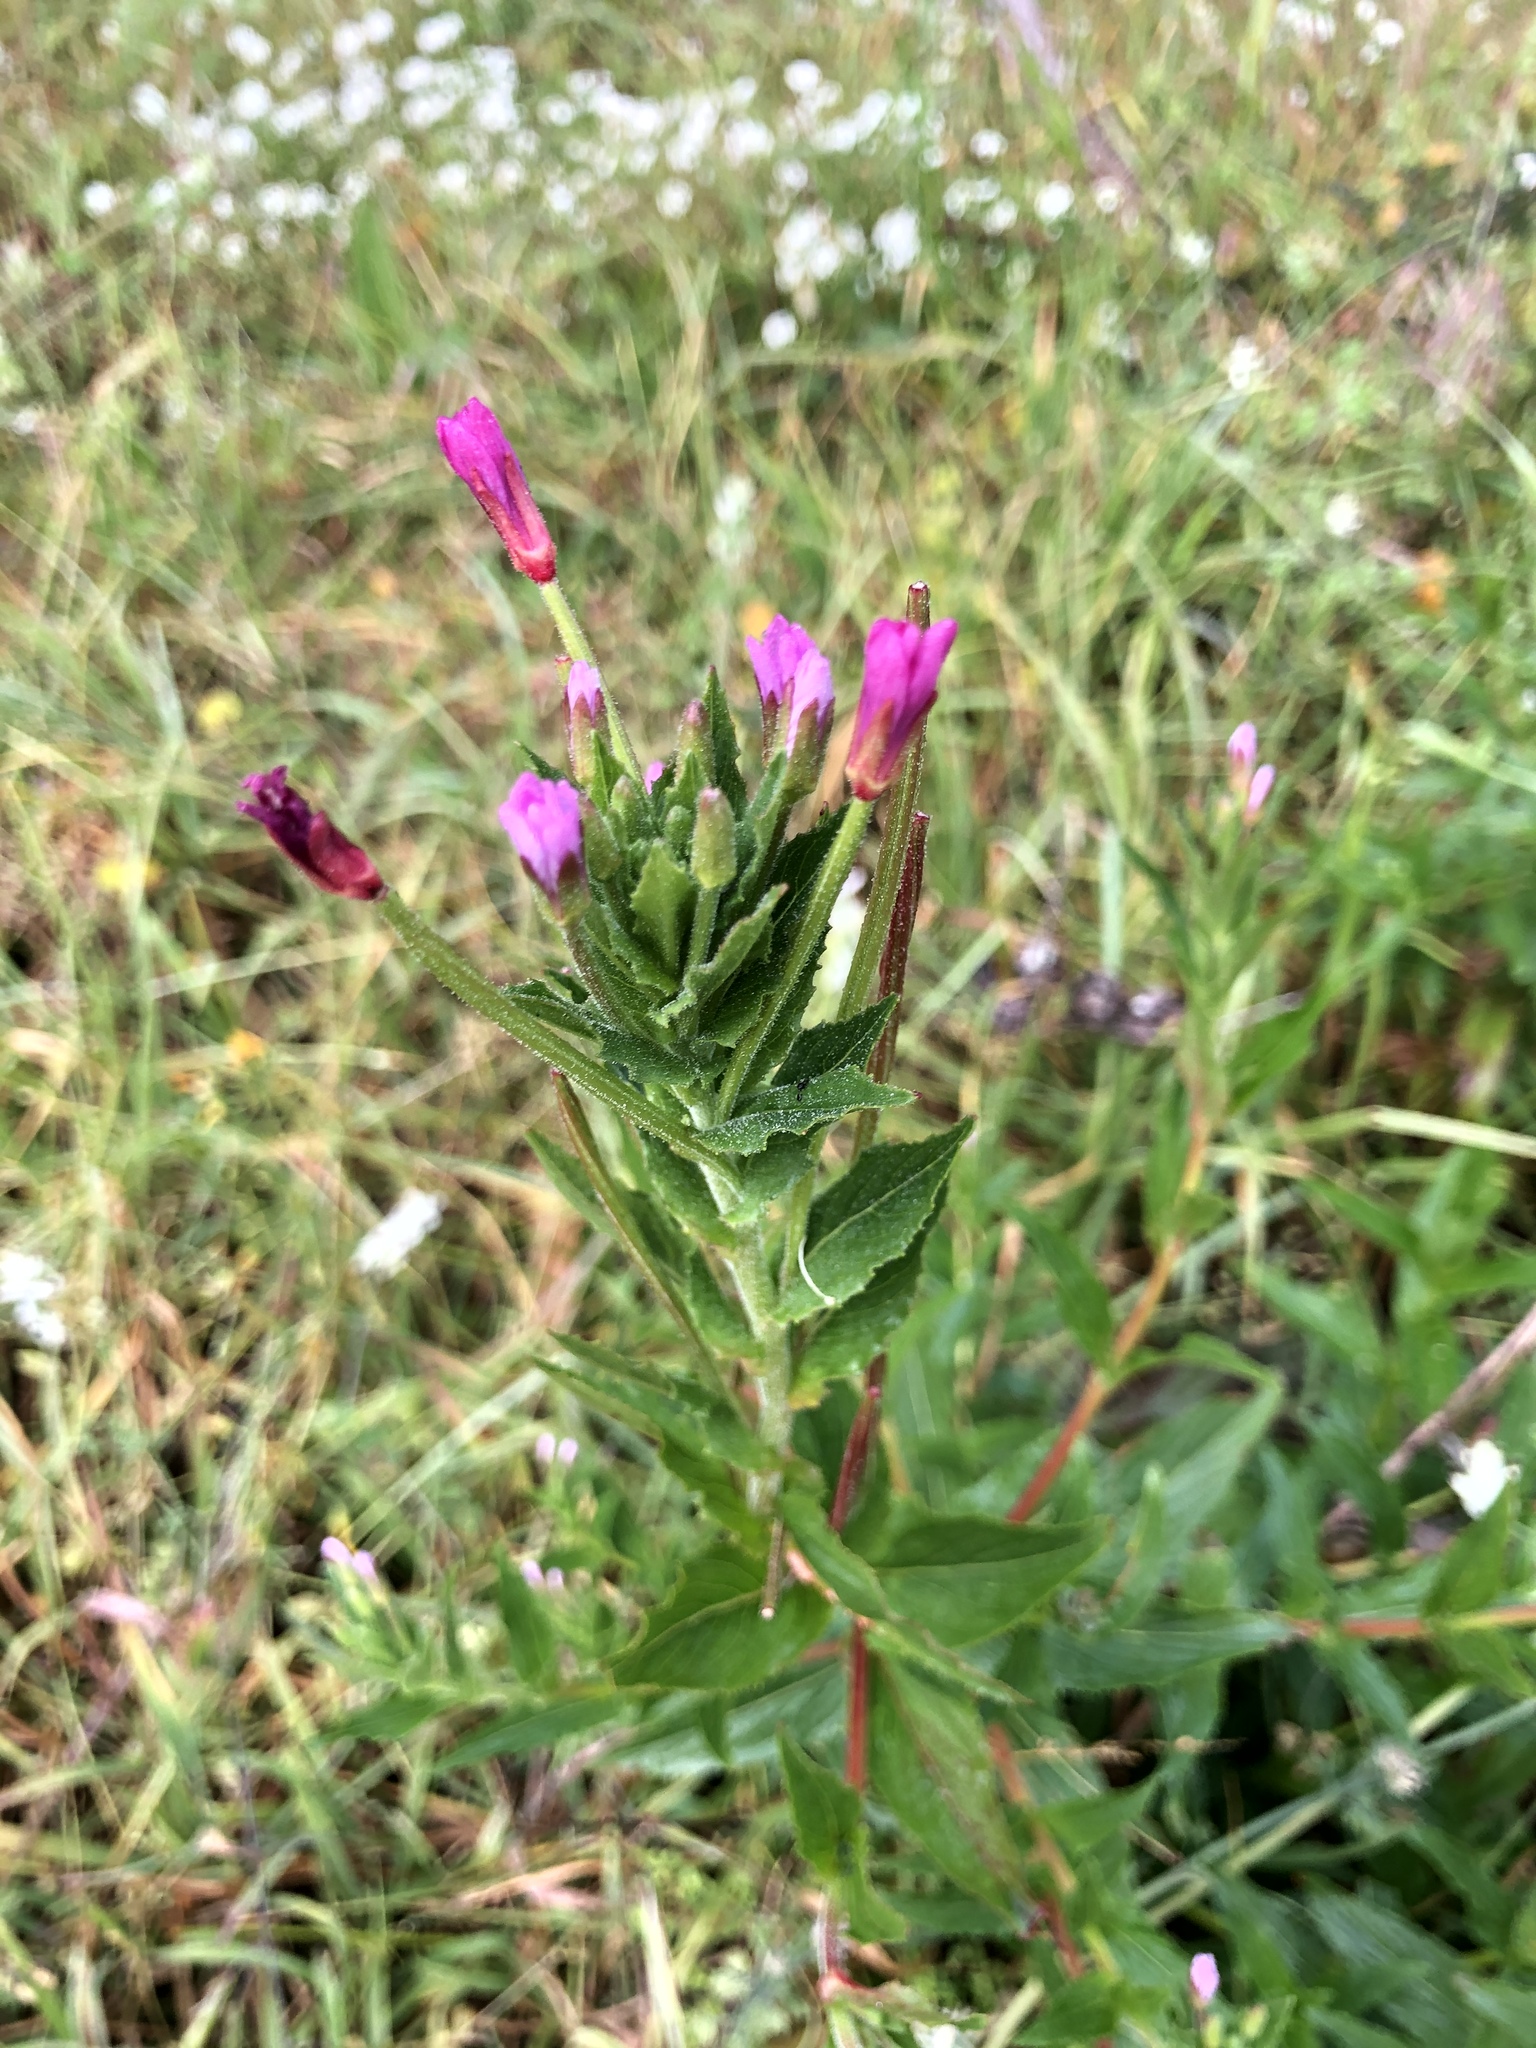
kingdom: Plantae
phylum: Tracheophyta
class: Magnoliopsida
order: Myrtales
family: Onagraceae
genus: Epilobium
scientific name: Epilobium ciliatum
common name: American willowherb
